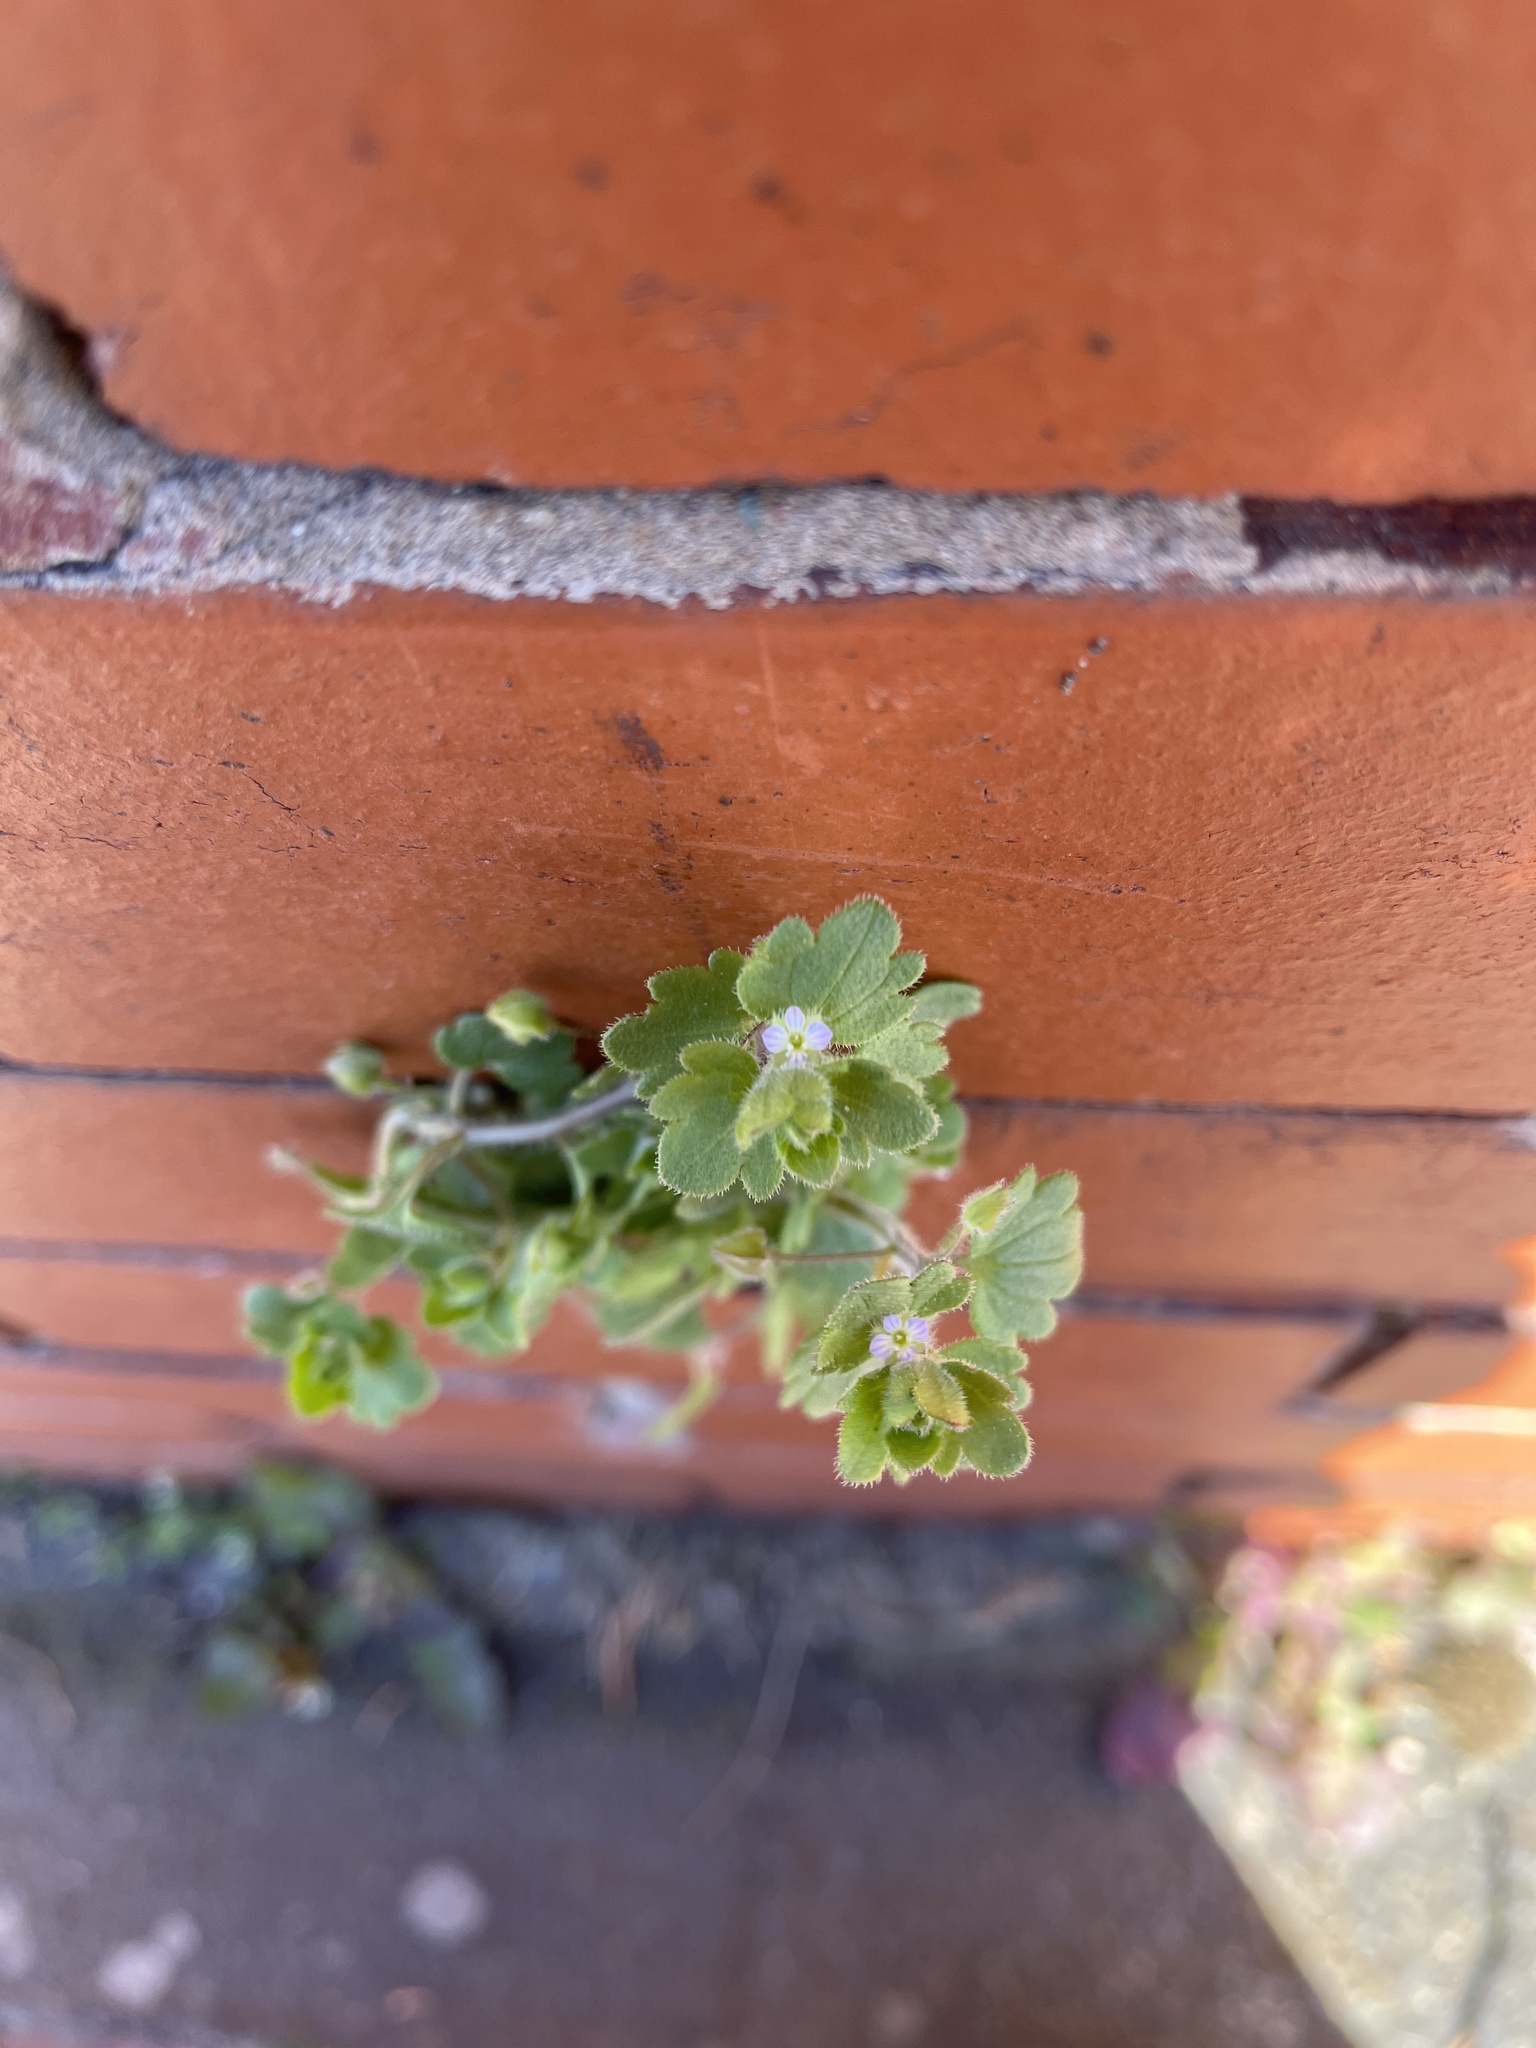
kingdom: Plantae
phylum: Tracheophyta
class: Magnoliopsida
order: Lamiales
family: Plantaginaceae
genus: Veronica
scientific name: Veronica sublobata
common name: False ivy-leaved speedwell
